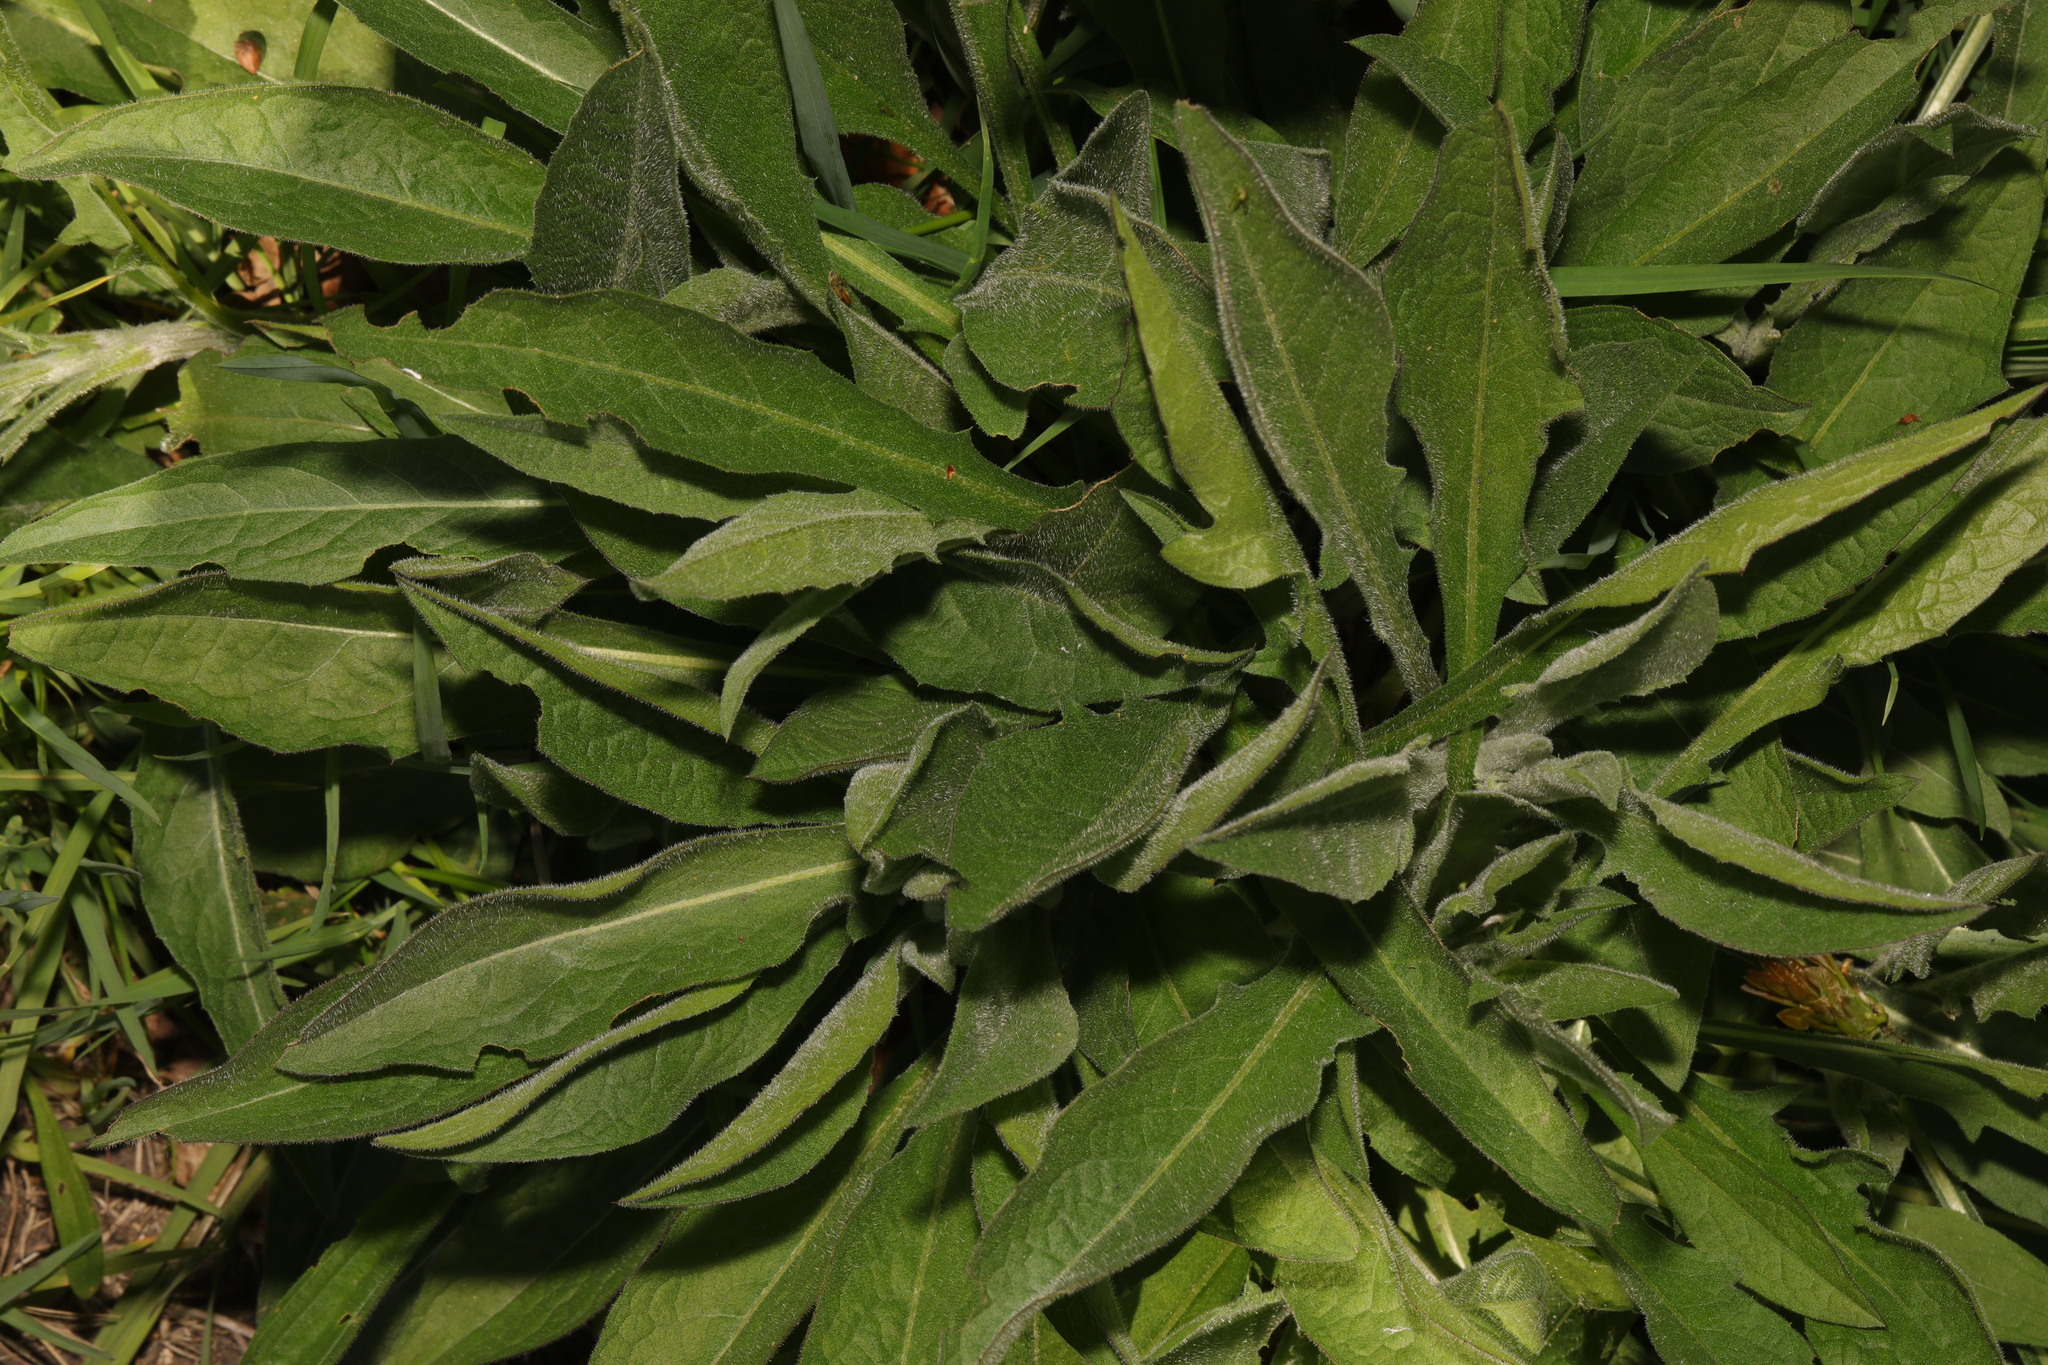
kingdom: Plantae
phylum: Tracheophyta
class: Magnoliopsida
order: Asterales
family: Asteraceae
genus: Centaurea
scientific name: Centaurea nigra
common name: Lesser knapweed
